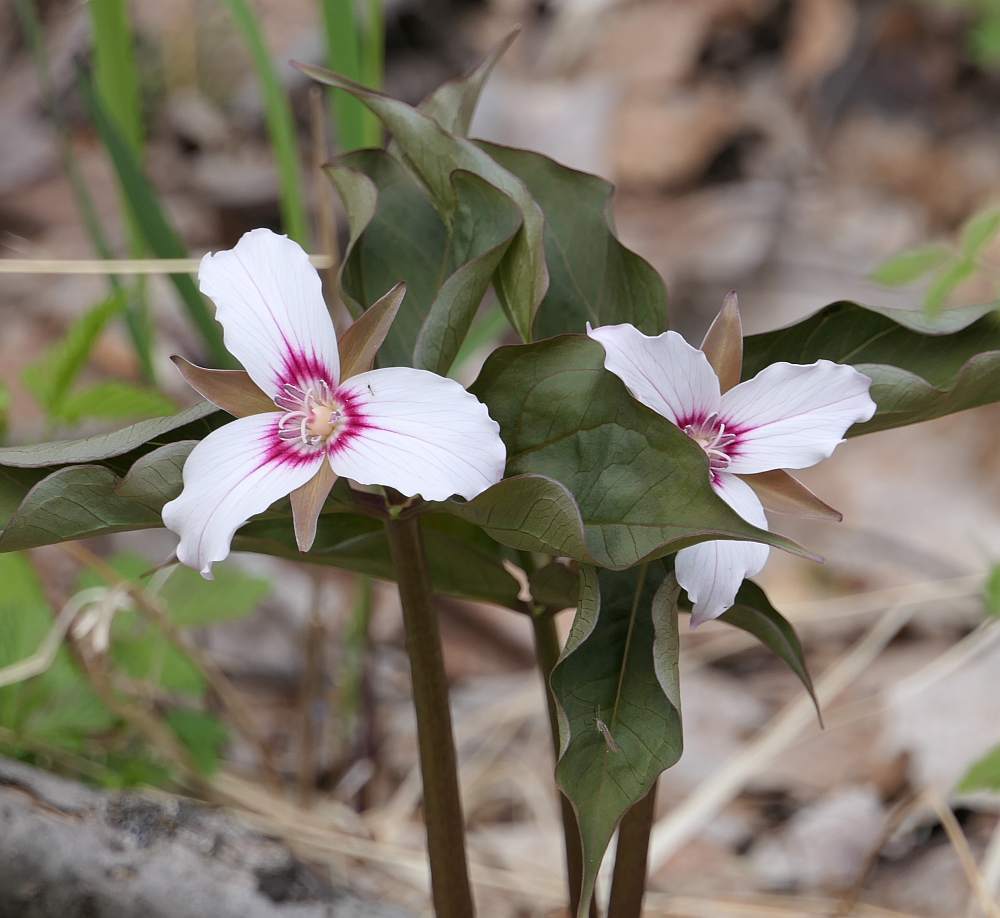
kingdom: Plantae
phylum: Tracheophyta
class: Liliopsida
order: Liliales
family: Melanthiaceae
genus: Trillium
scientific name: Trillium undulatum
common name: Paint trillium
